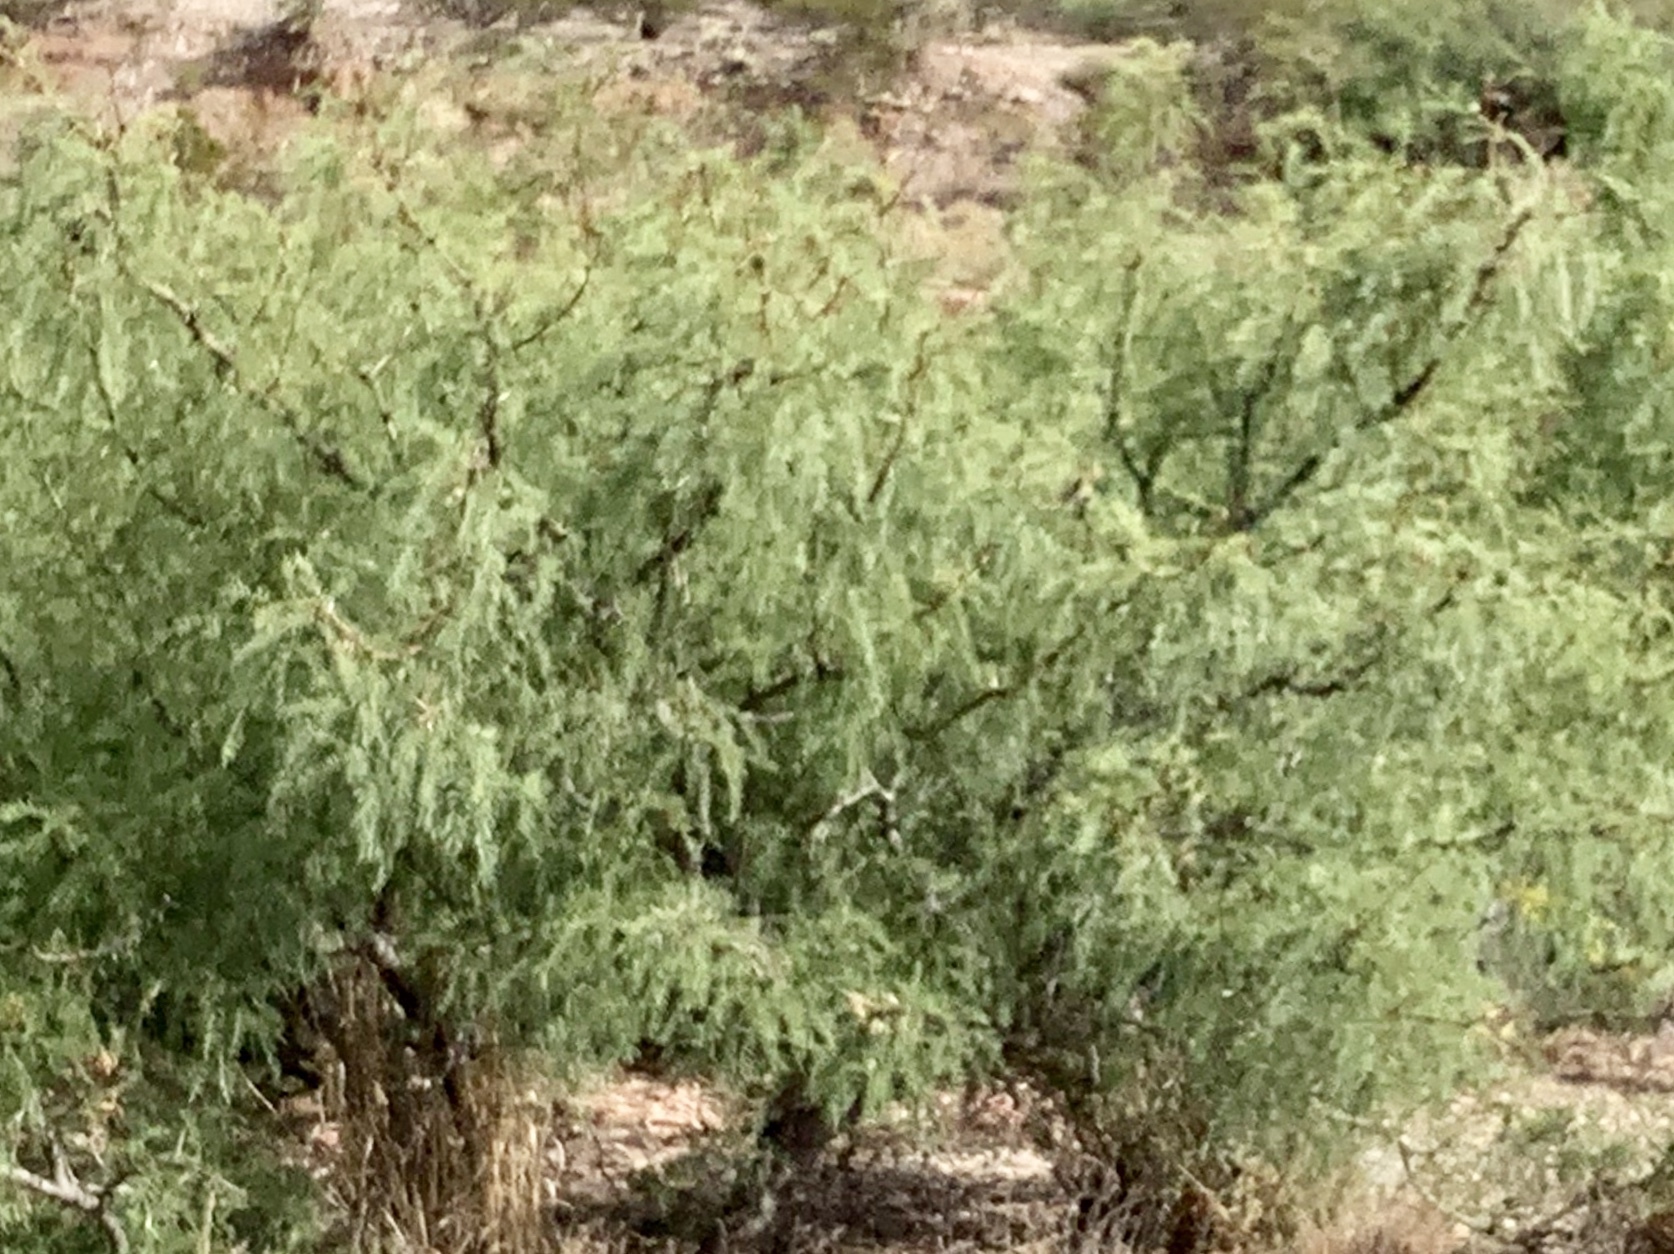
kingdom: Plantae
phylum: Tracheophyta
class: Magnoliopsida
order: Fabales
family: Fabaceae
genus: Prosopis
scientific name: Prosopis glandulosa
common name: Honey mesquite
